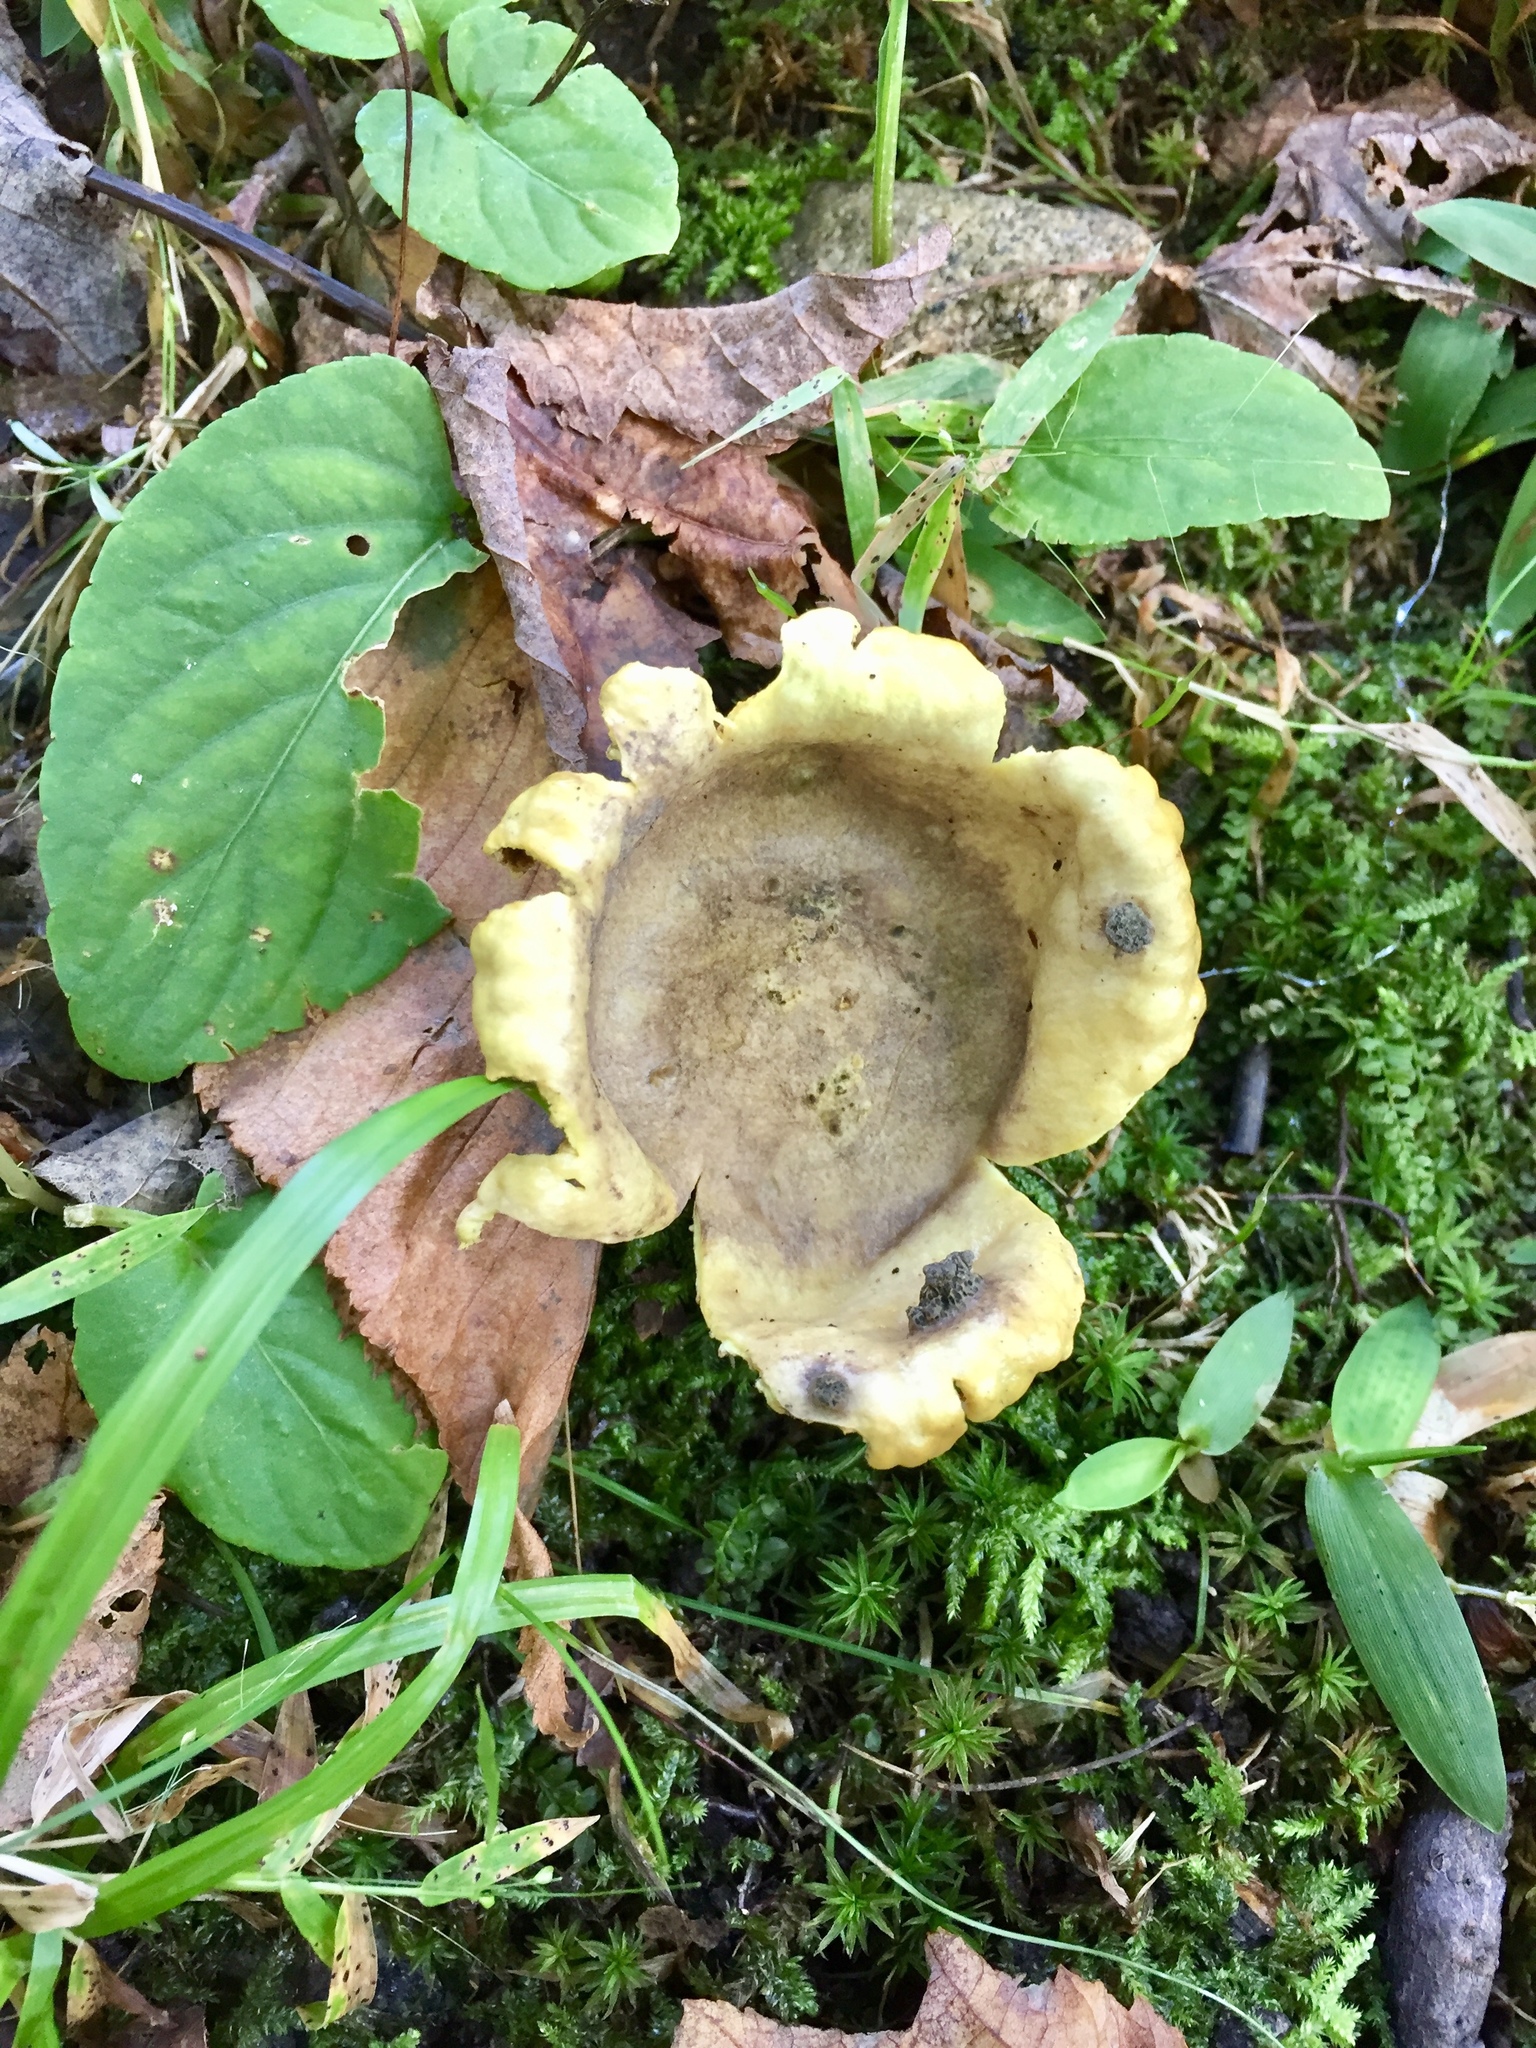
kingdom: Fungi
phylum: Basidiomycota
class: Agaricomycetes
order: Boletales
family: Sclerodermataceae
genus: Scleroderma
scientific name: Scleroderma citrinum
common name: Common earthball
